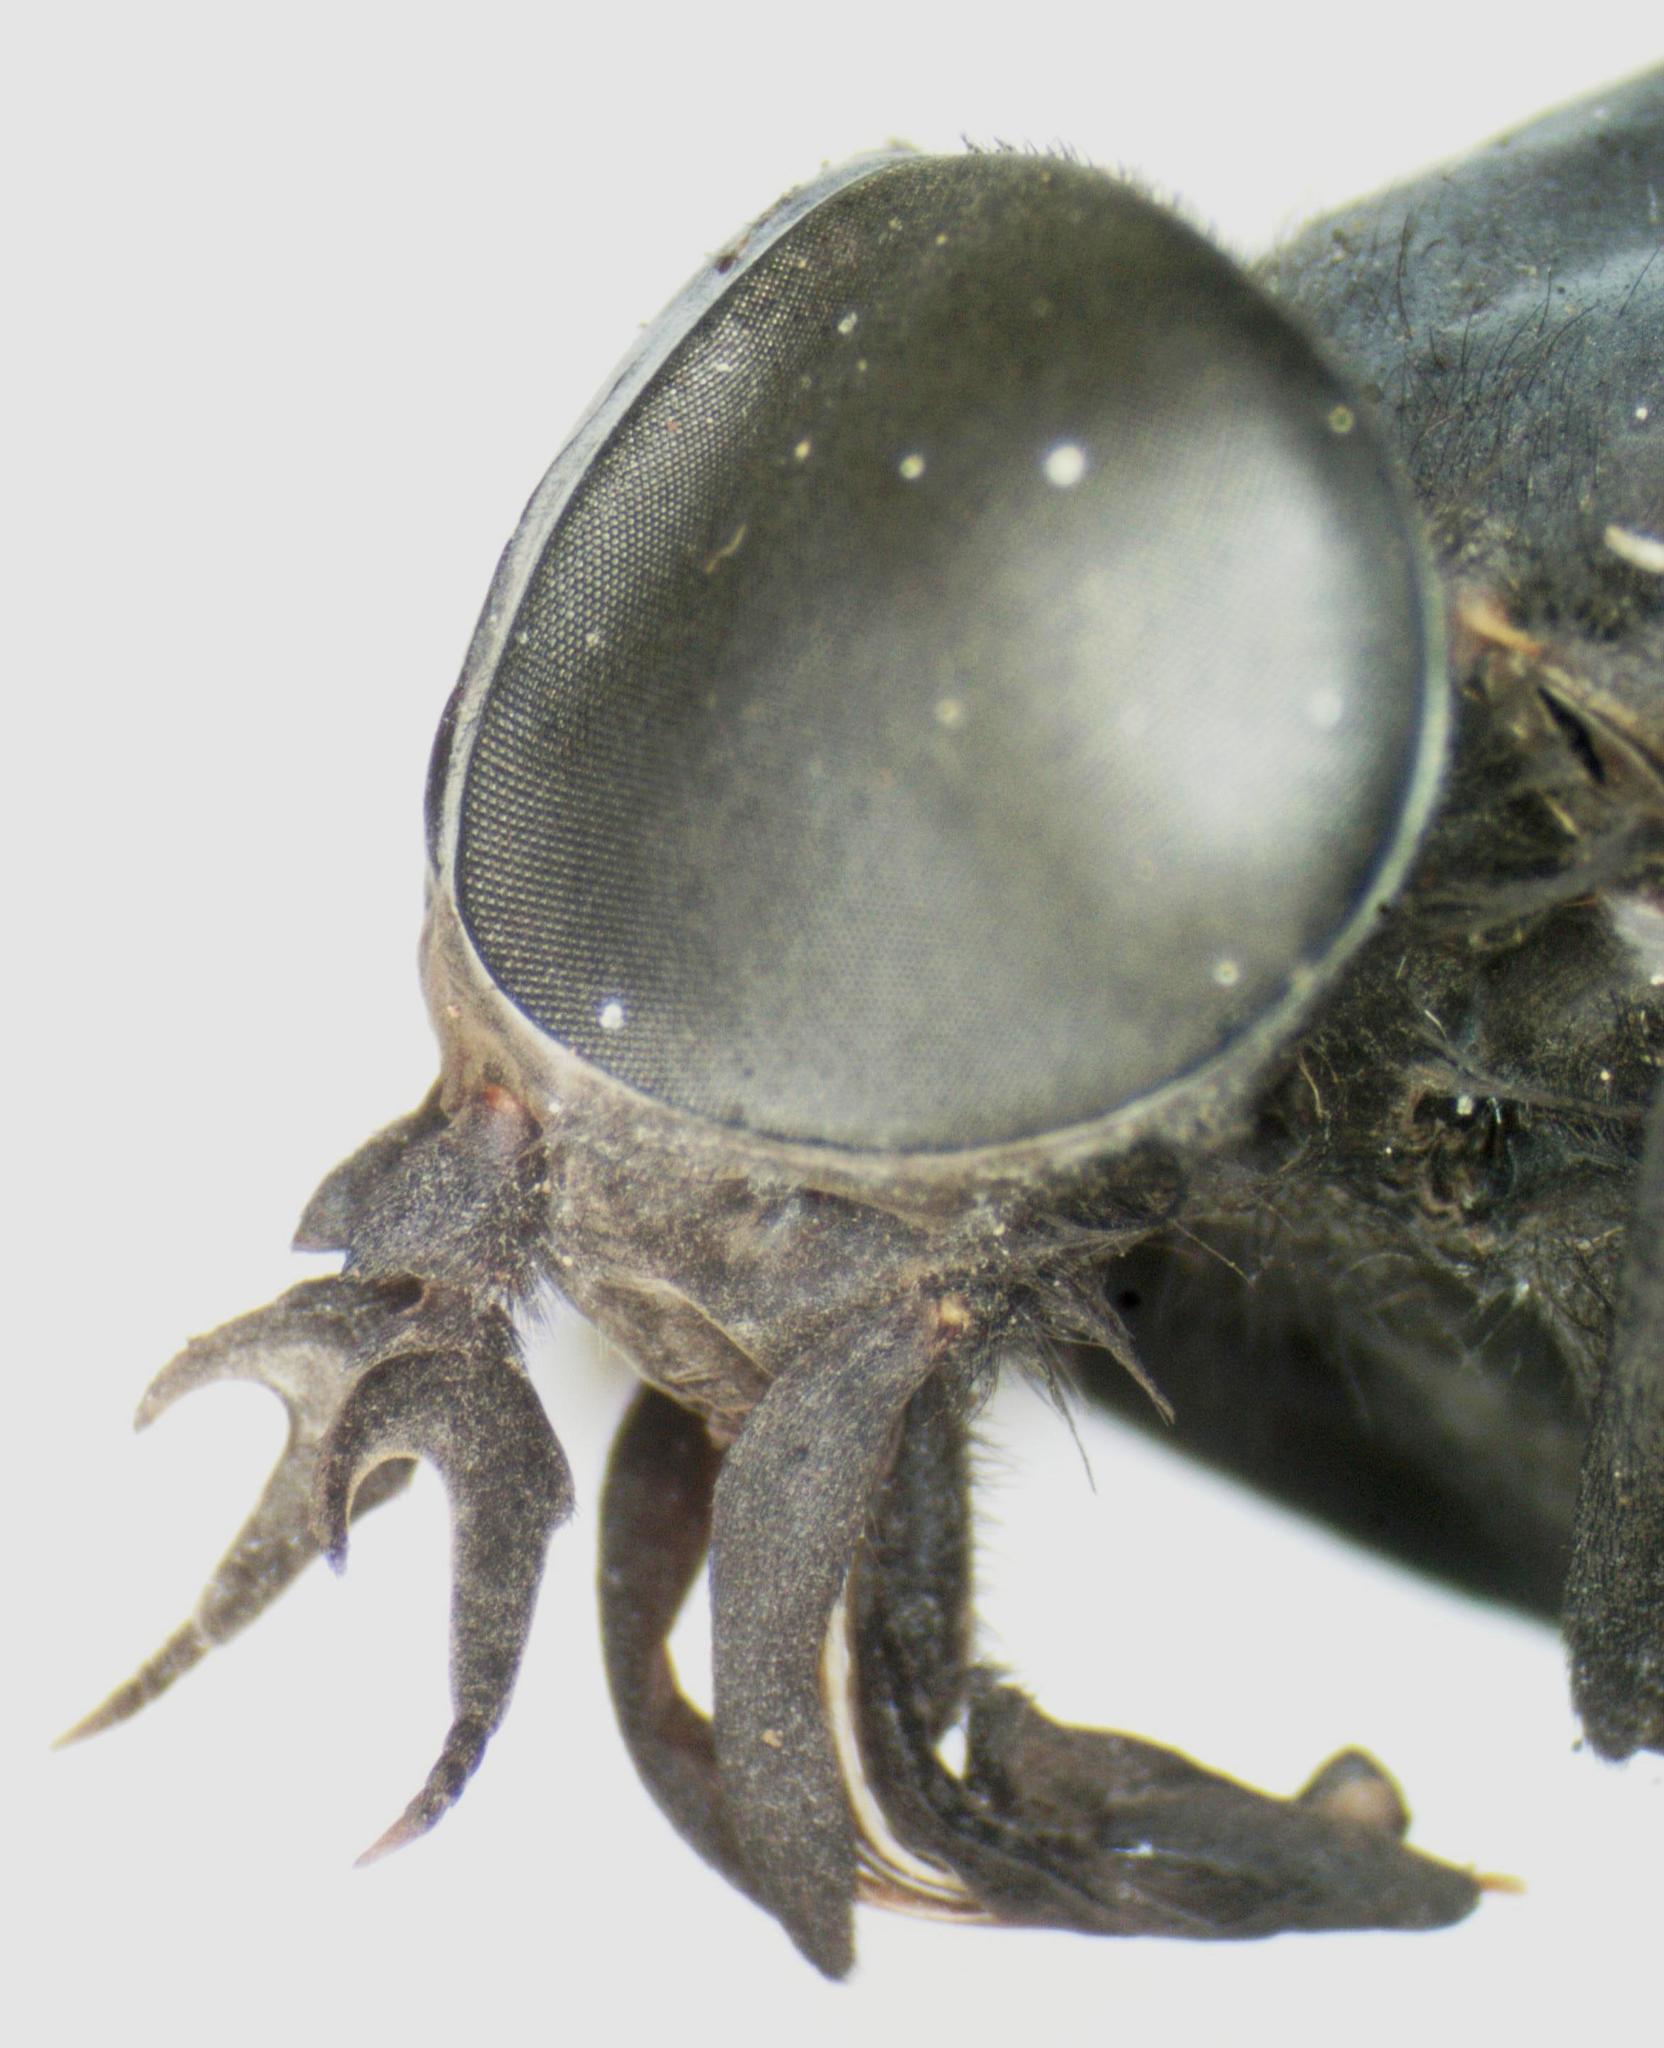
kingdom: Animalia
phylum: Arthropoda
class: Insecta
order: Diptera
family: Tabanidae
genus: Tabanus
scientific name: Tabanus erebus
